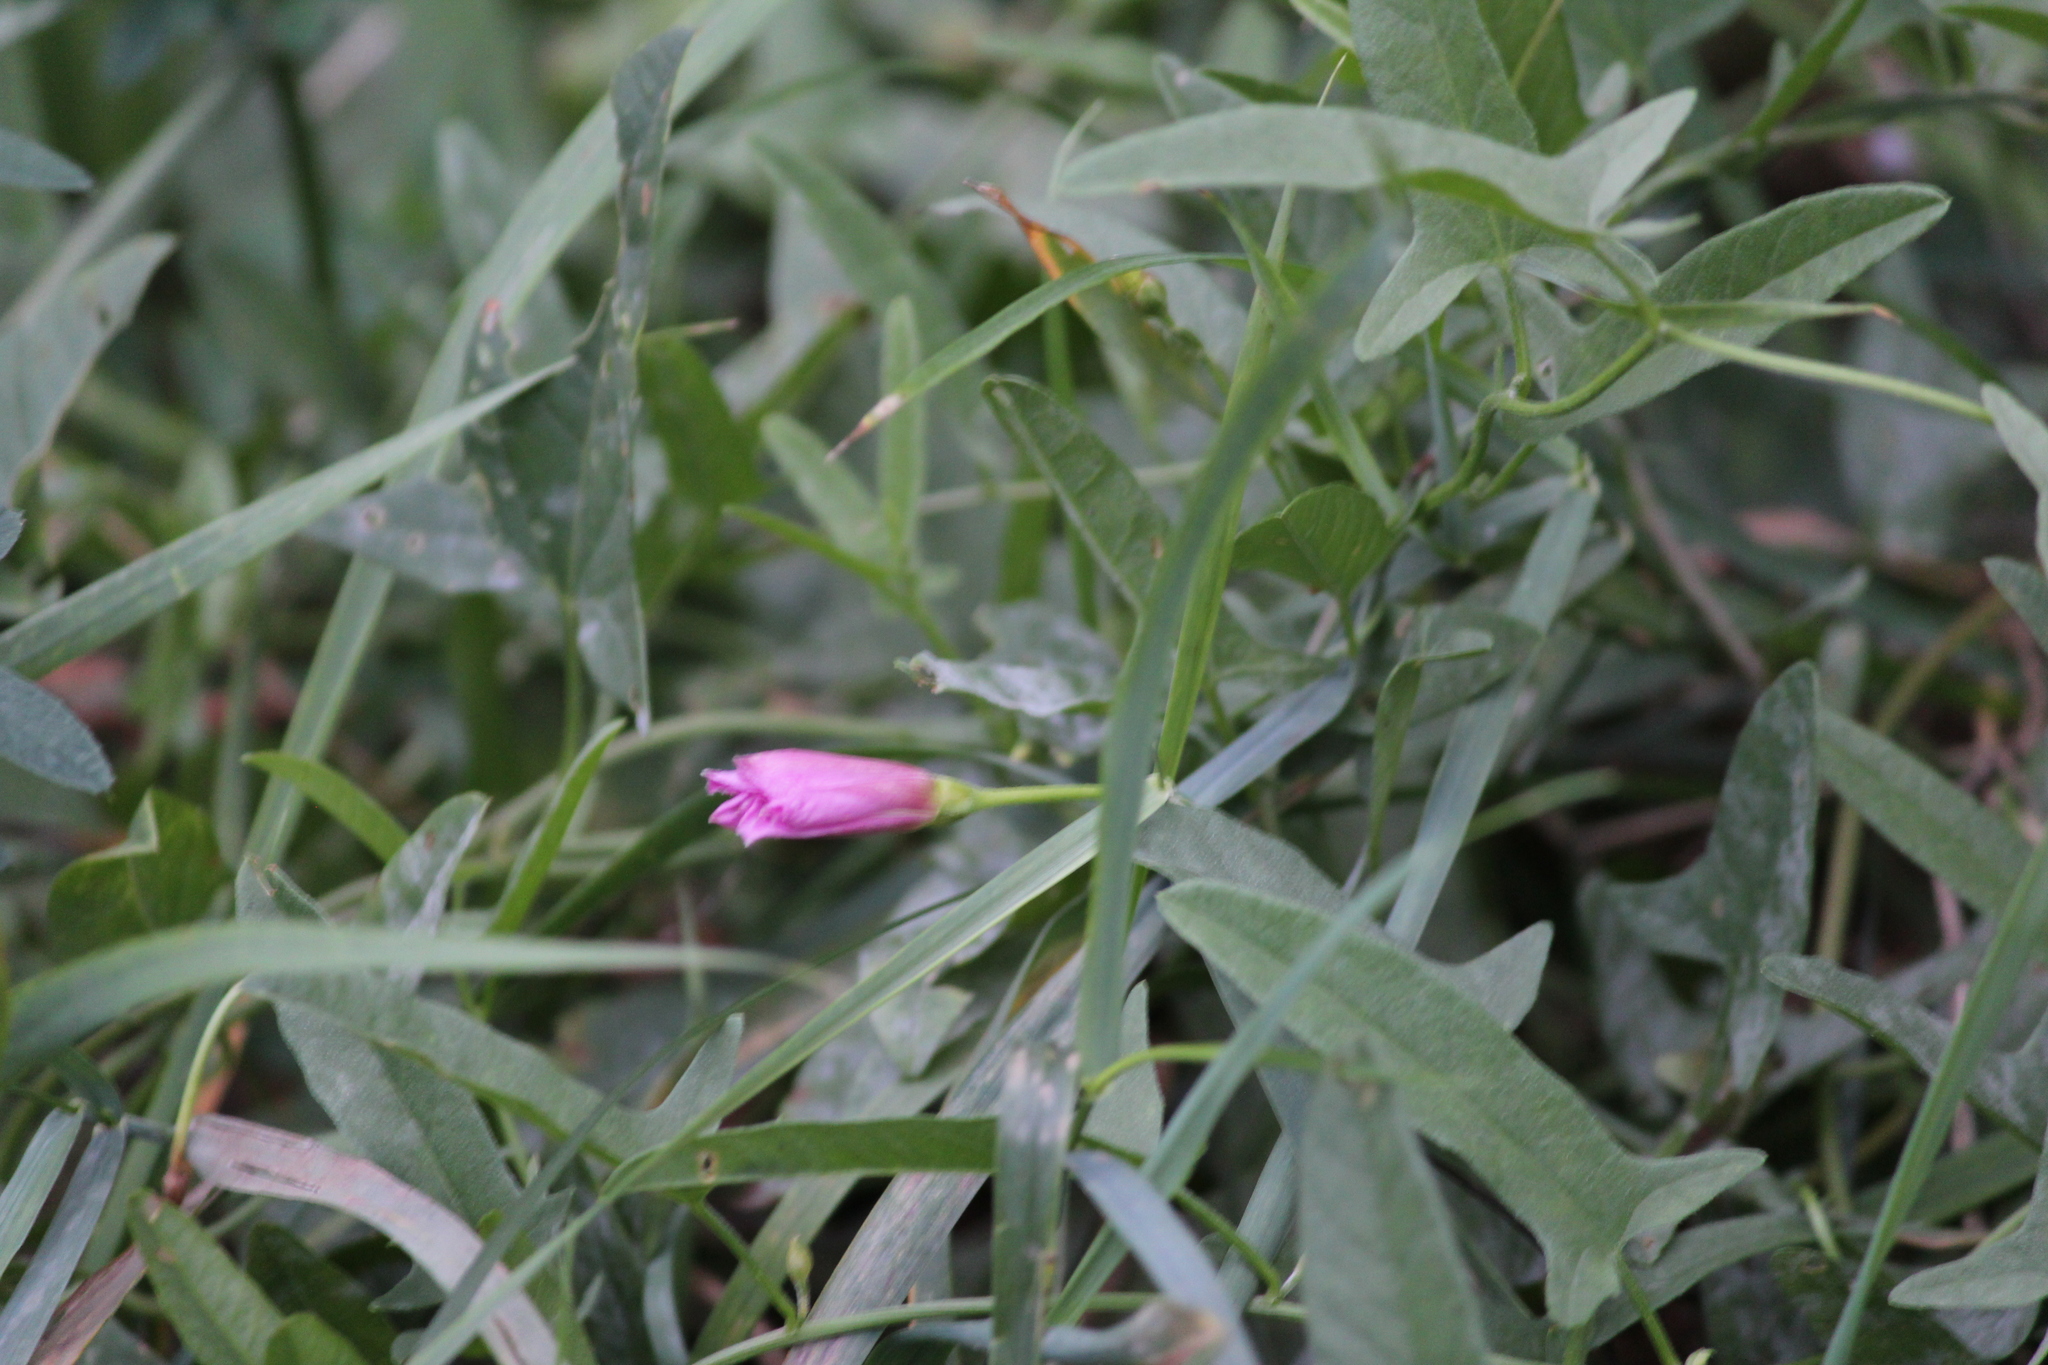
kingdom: Plantae
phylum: Tracheophyta
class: Magnoliopsida
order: Solanales
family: Convolvulaceae
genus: Convolvulus
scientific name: Convolvulus arvensis
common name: Field bindweed
